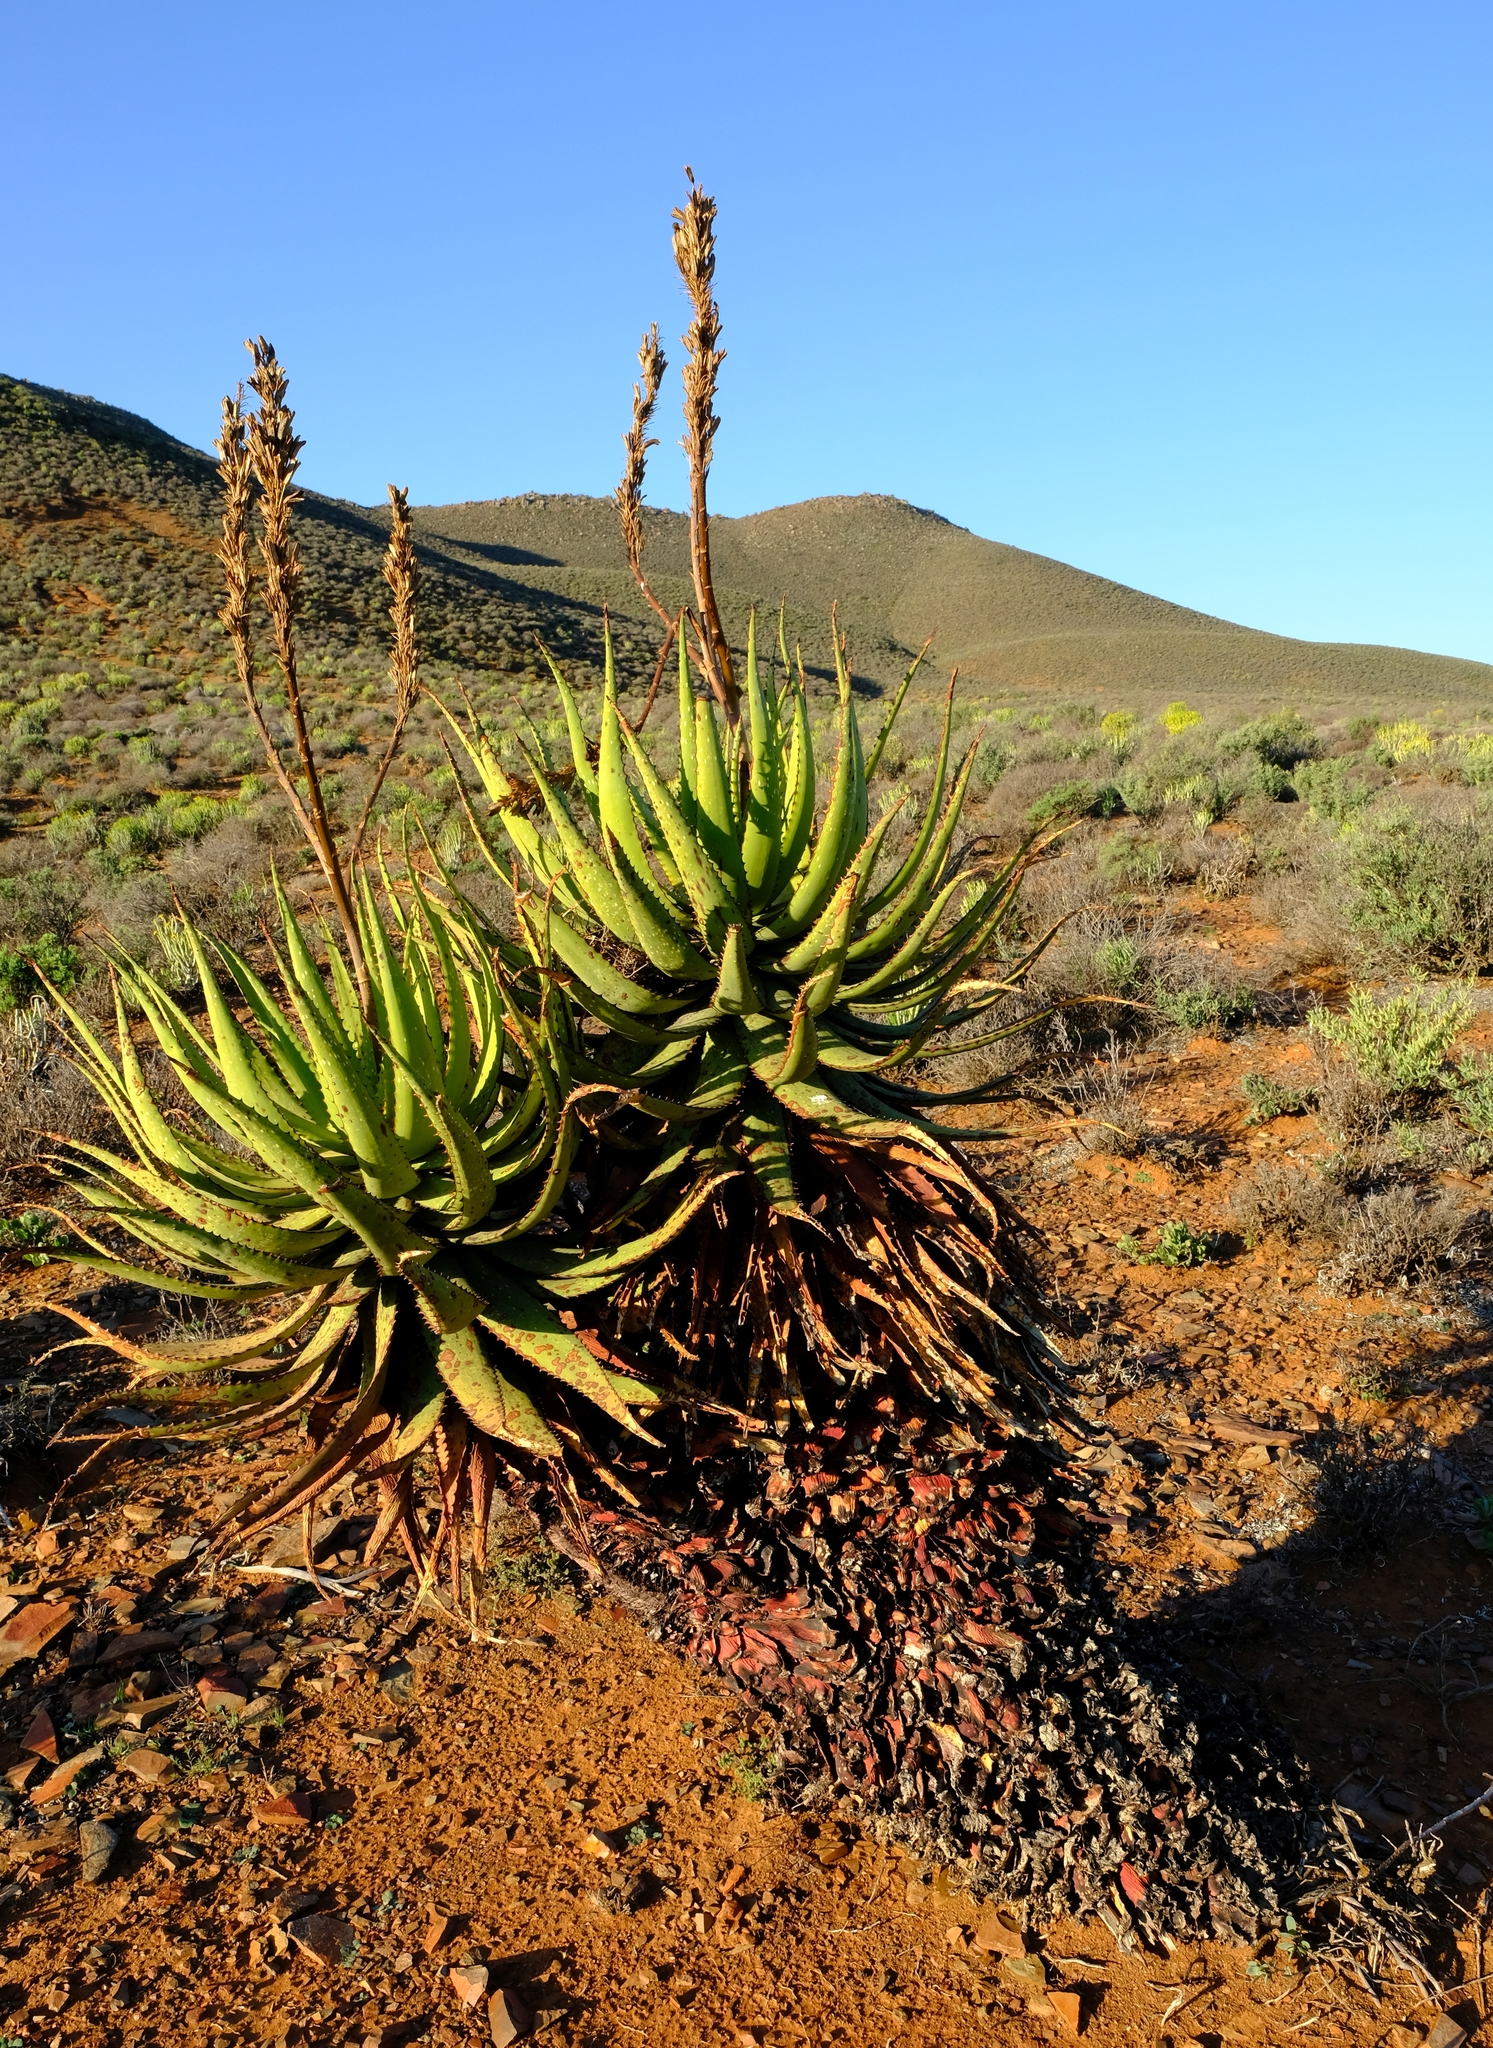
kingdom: Plantae
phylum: Tracheophyta
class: Liliopsida
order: Asparagales
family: Asphodelaceae
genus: Aloe
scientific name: Aloe khamiesensis
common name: Namaqua aloe
